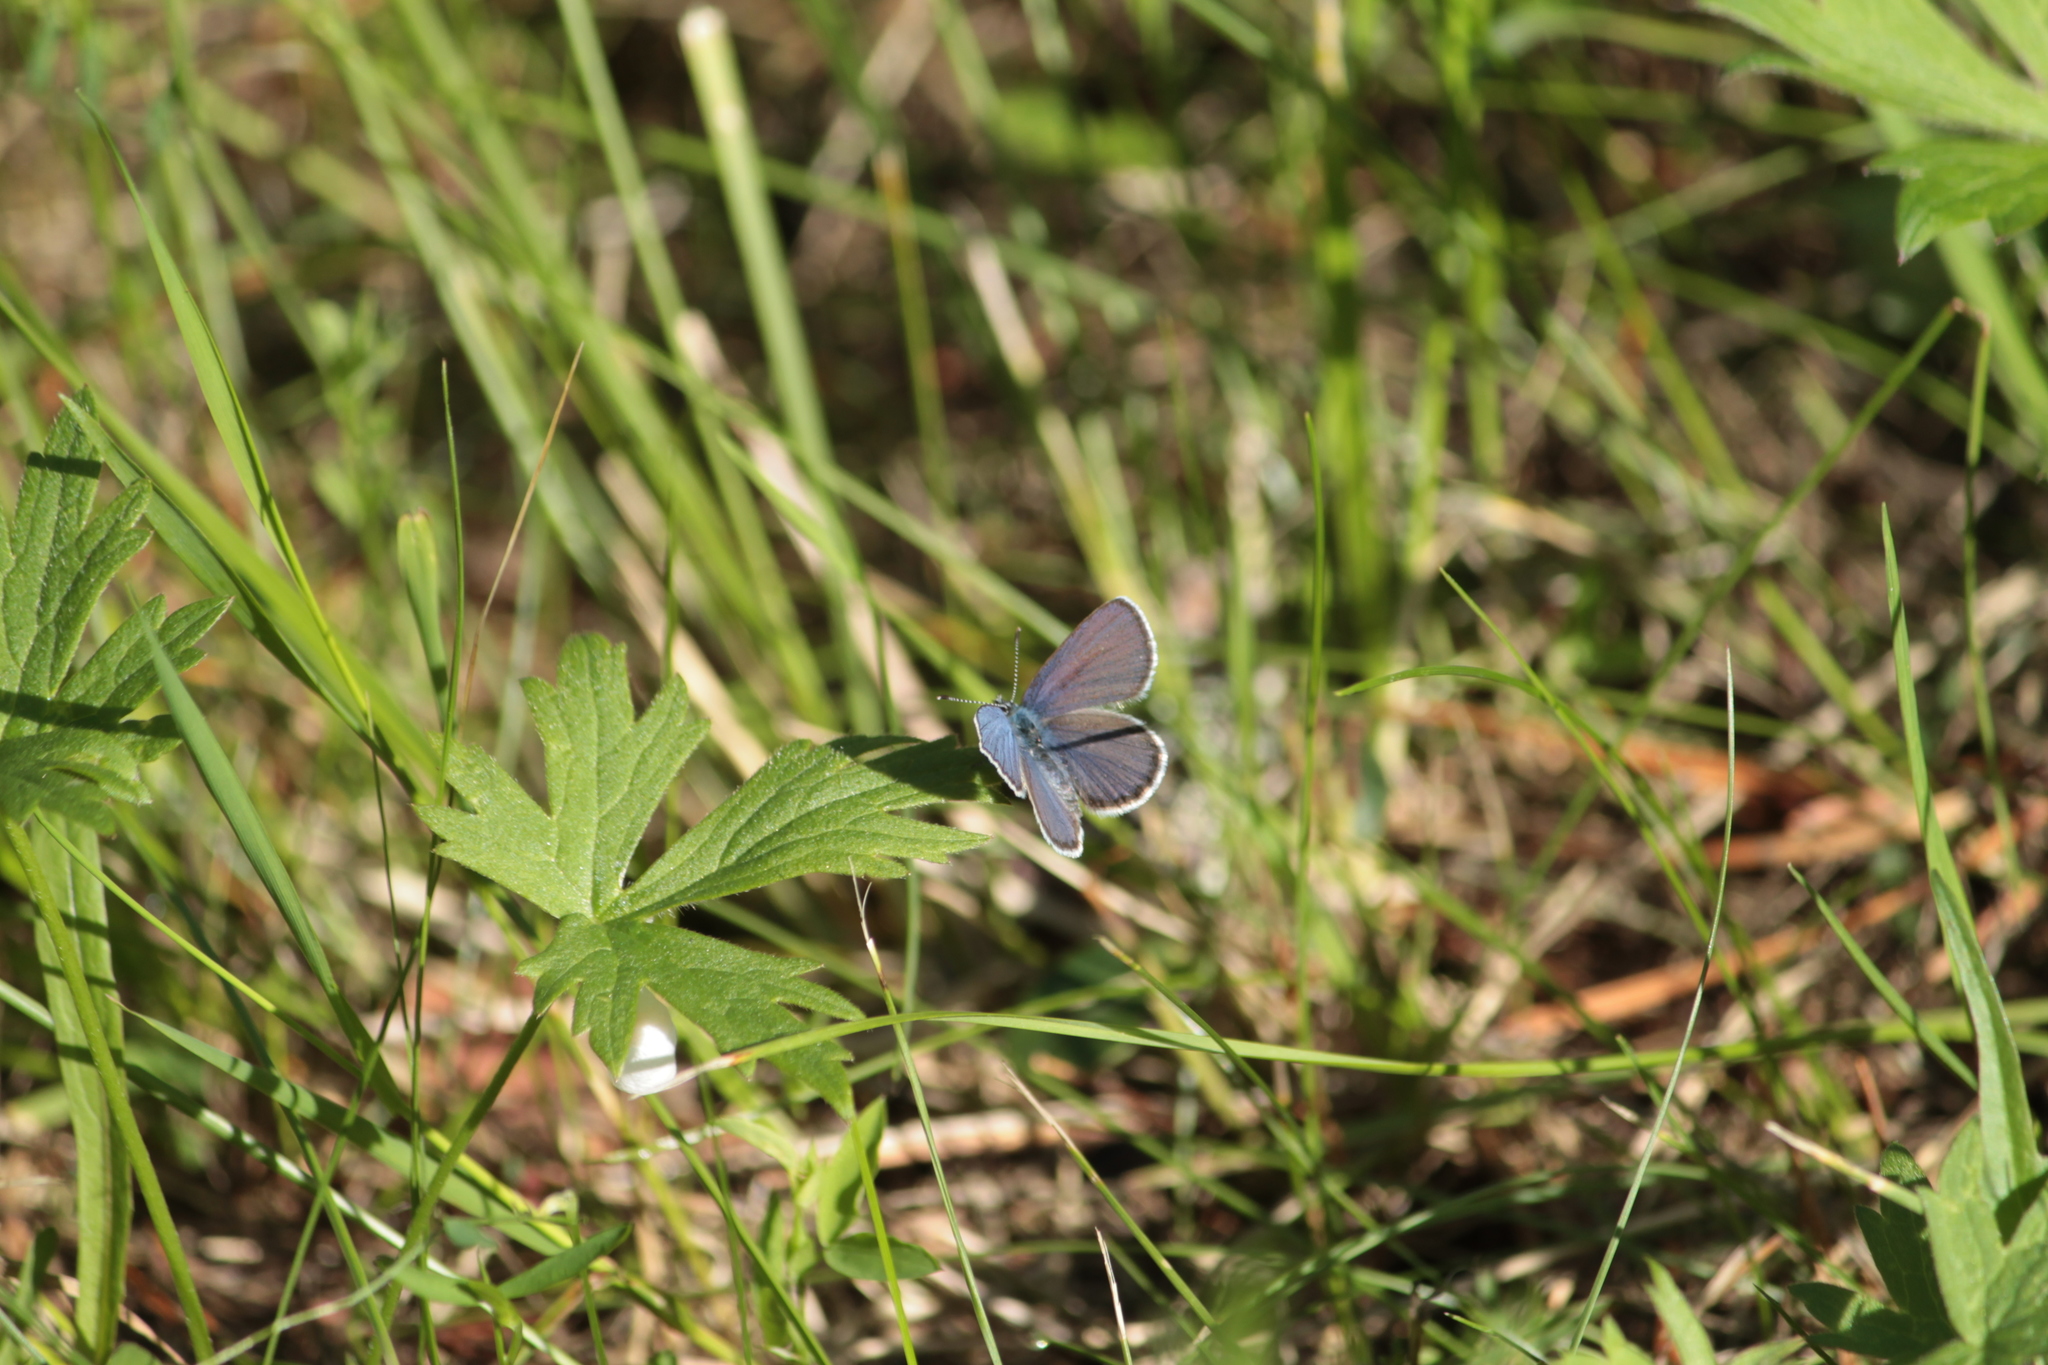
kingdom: Animalia
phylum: Arthropoda
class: Insecta
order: Lepidoptera
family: Lycaenidae
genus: Vacciniina
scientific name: Vacciniina optilete
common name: Cranberry blue
